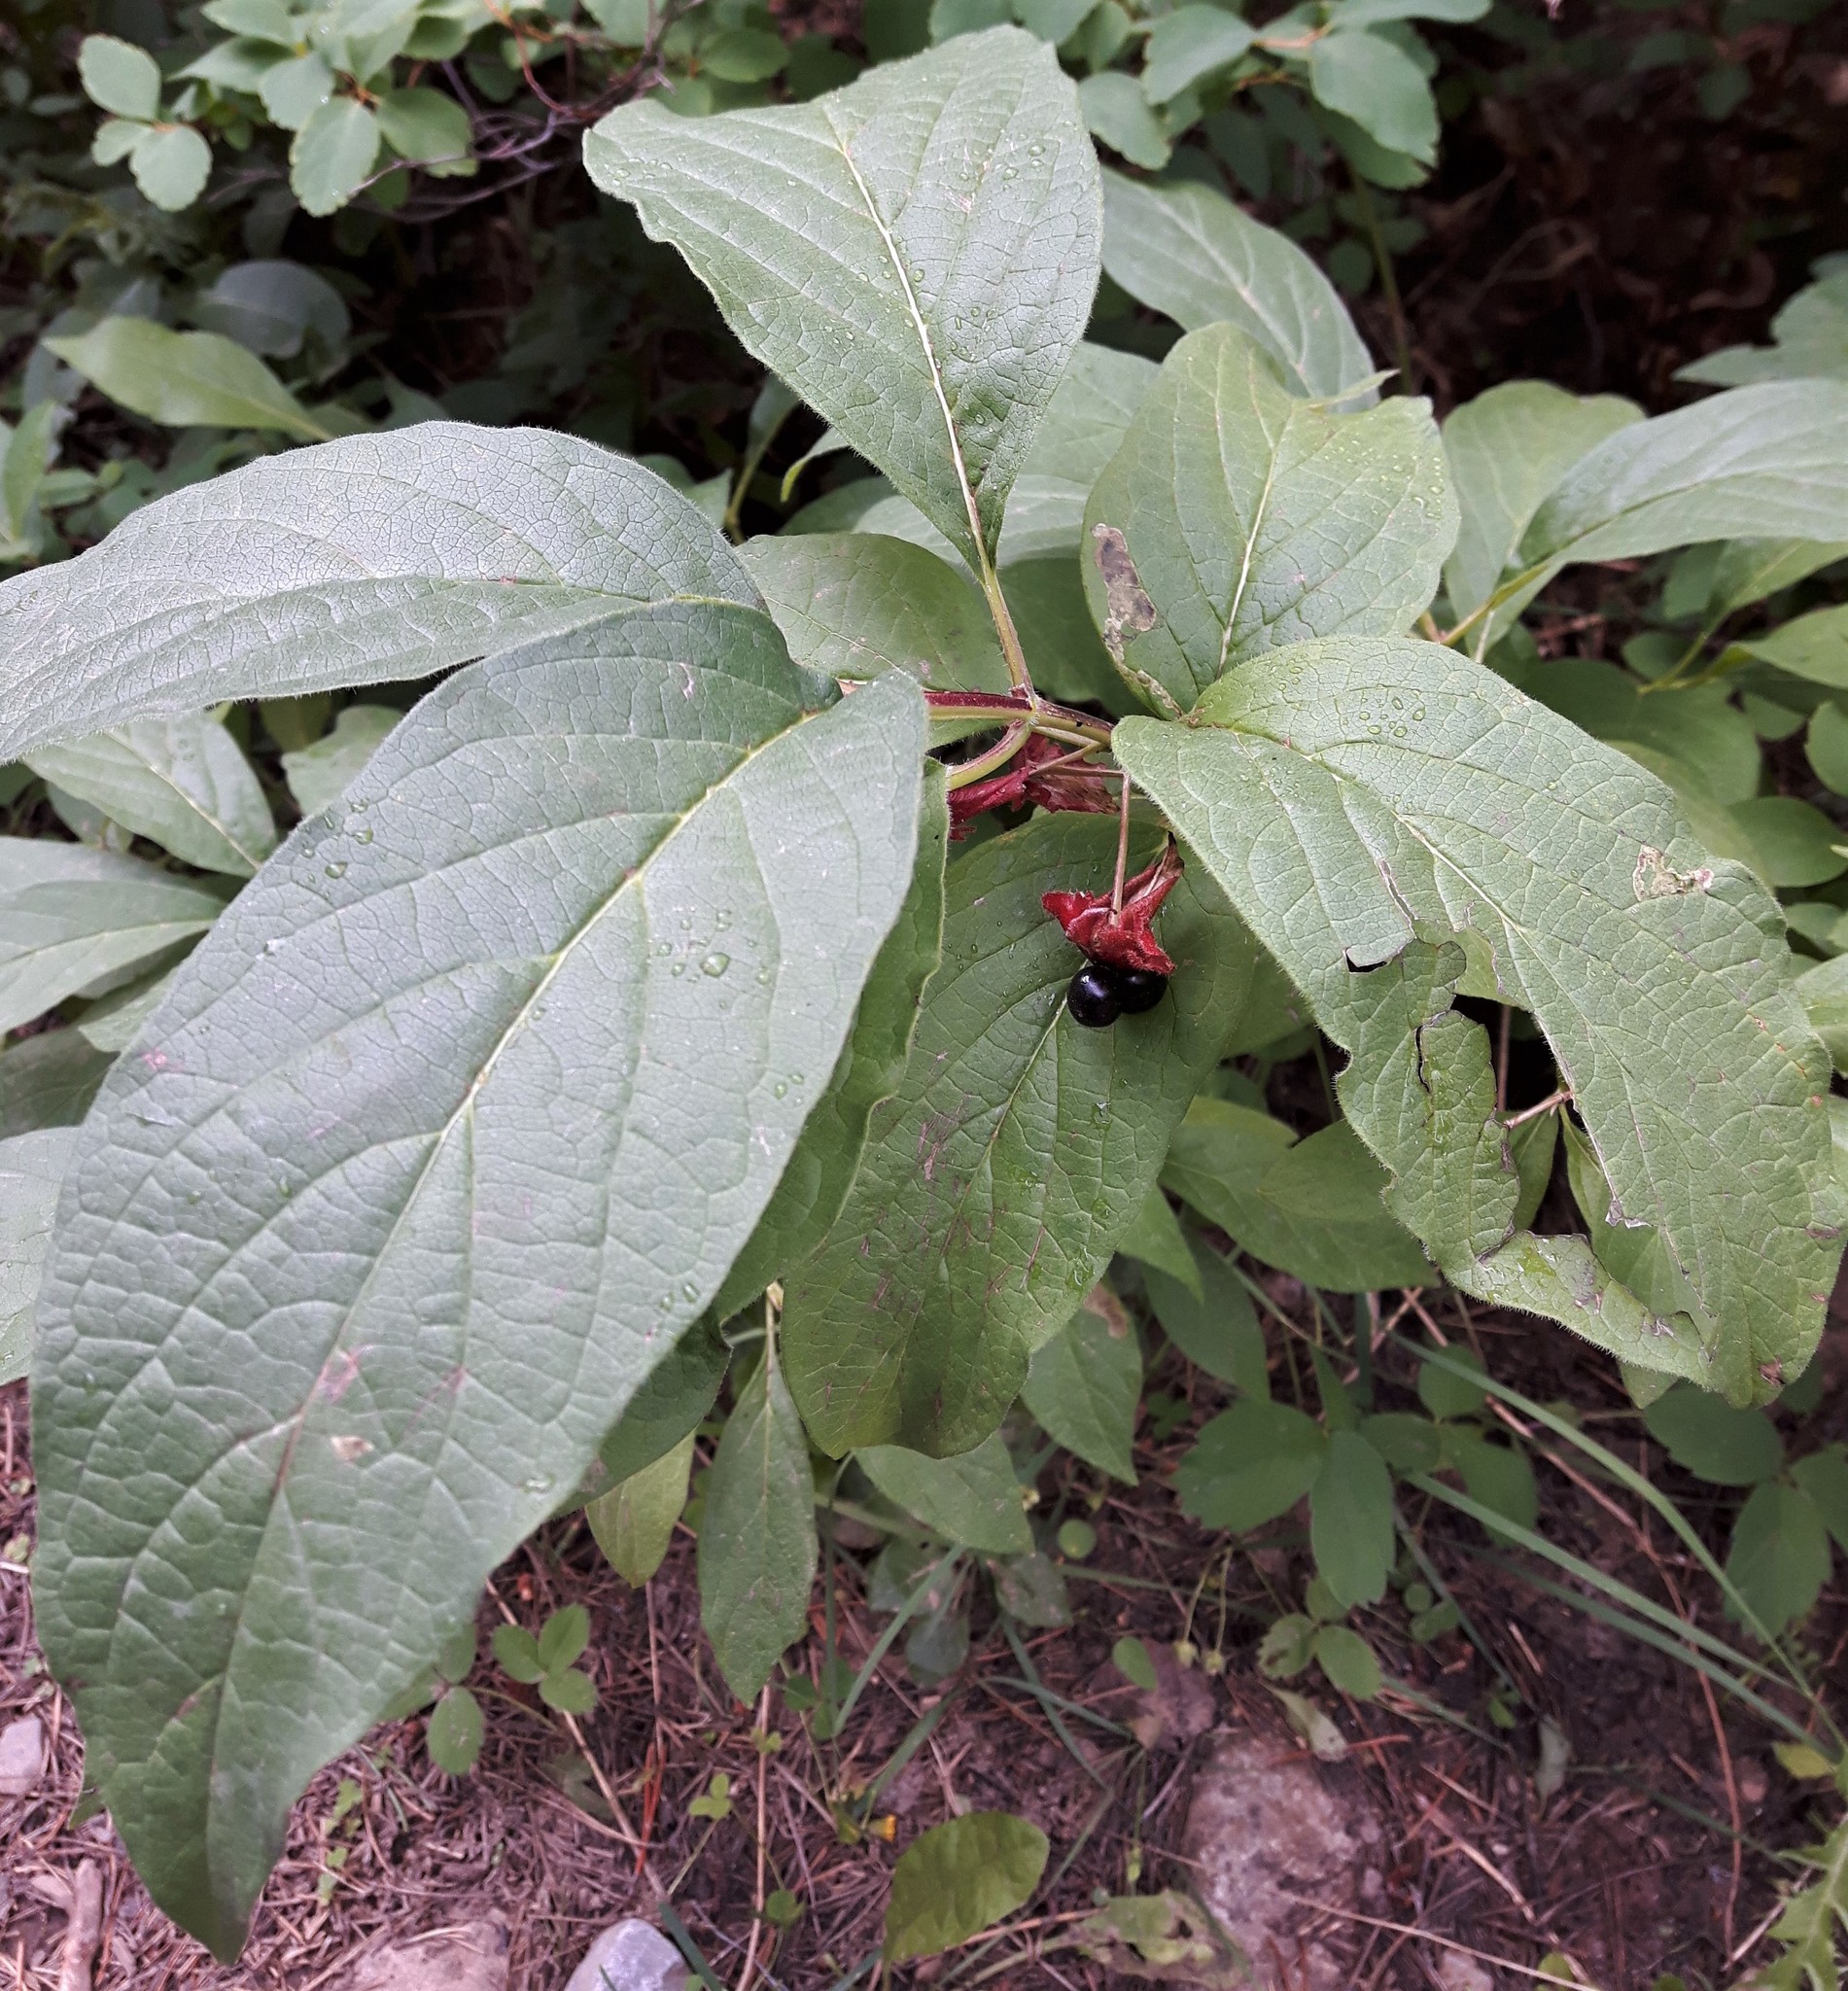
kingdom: Plantae
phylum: Tracheophyta
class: Magnoliopsida
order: Dipsacales
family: Caprifoliaceae
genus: Lonicera
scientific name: Lonicera involucrata
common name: Californian honeysuckle
